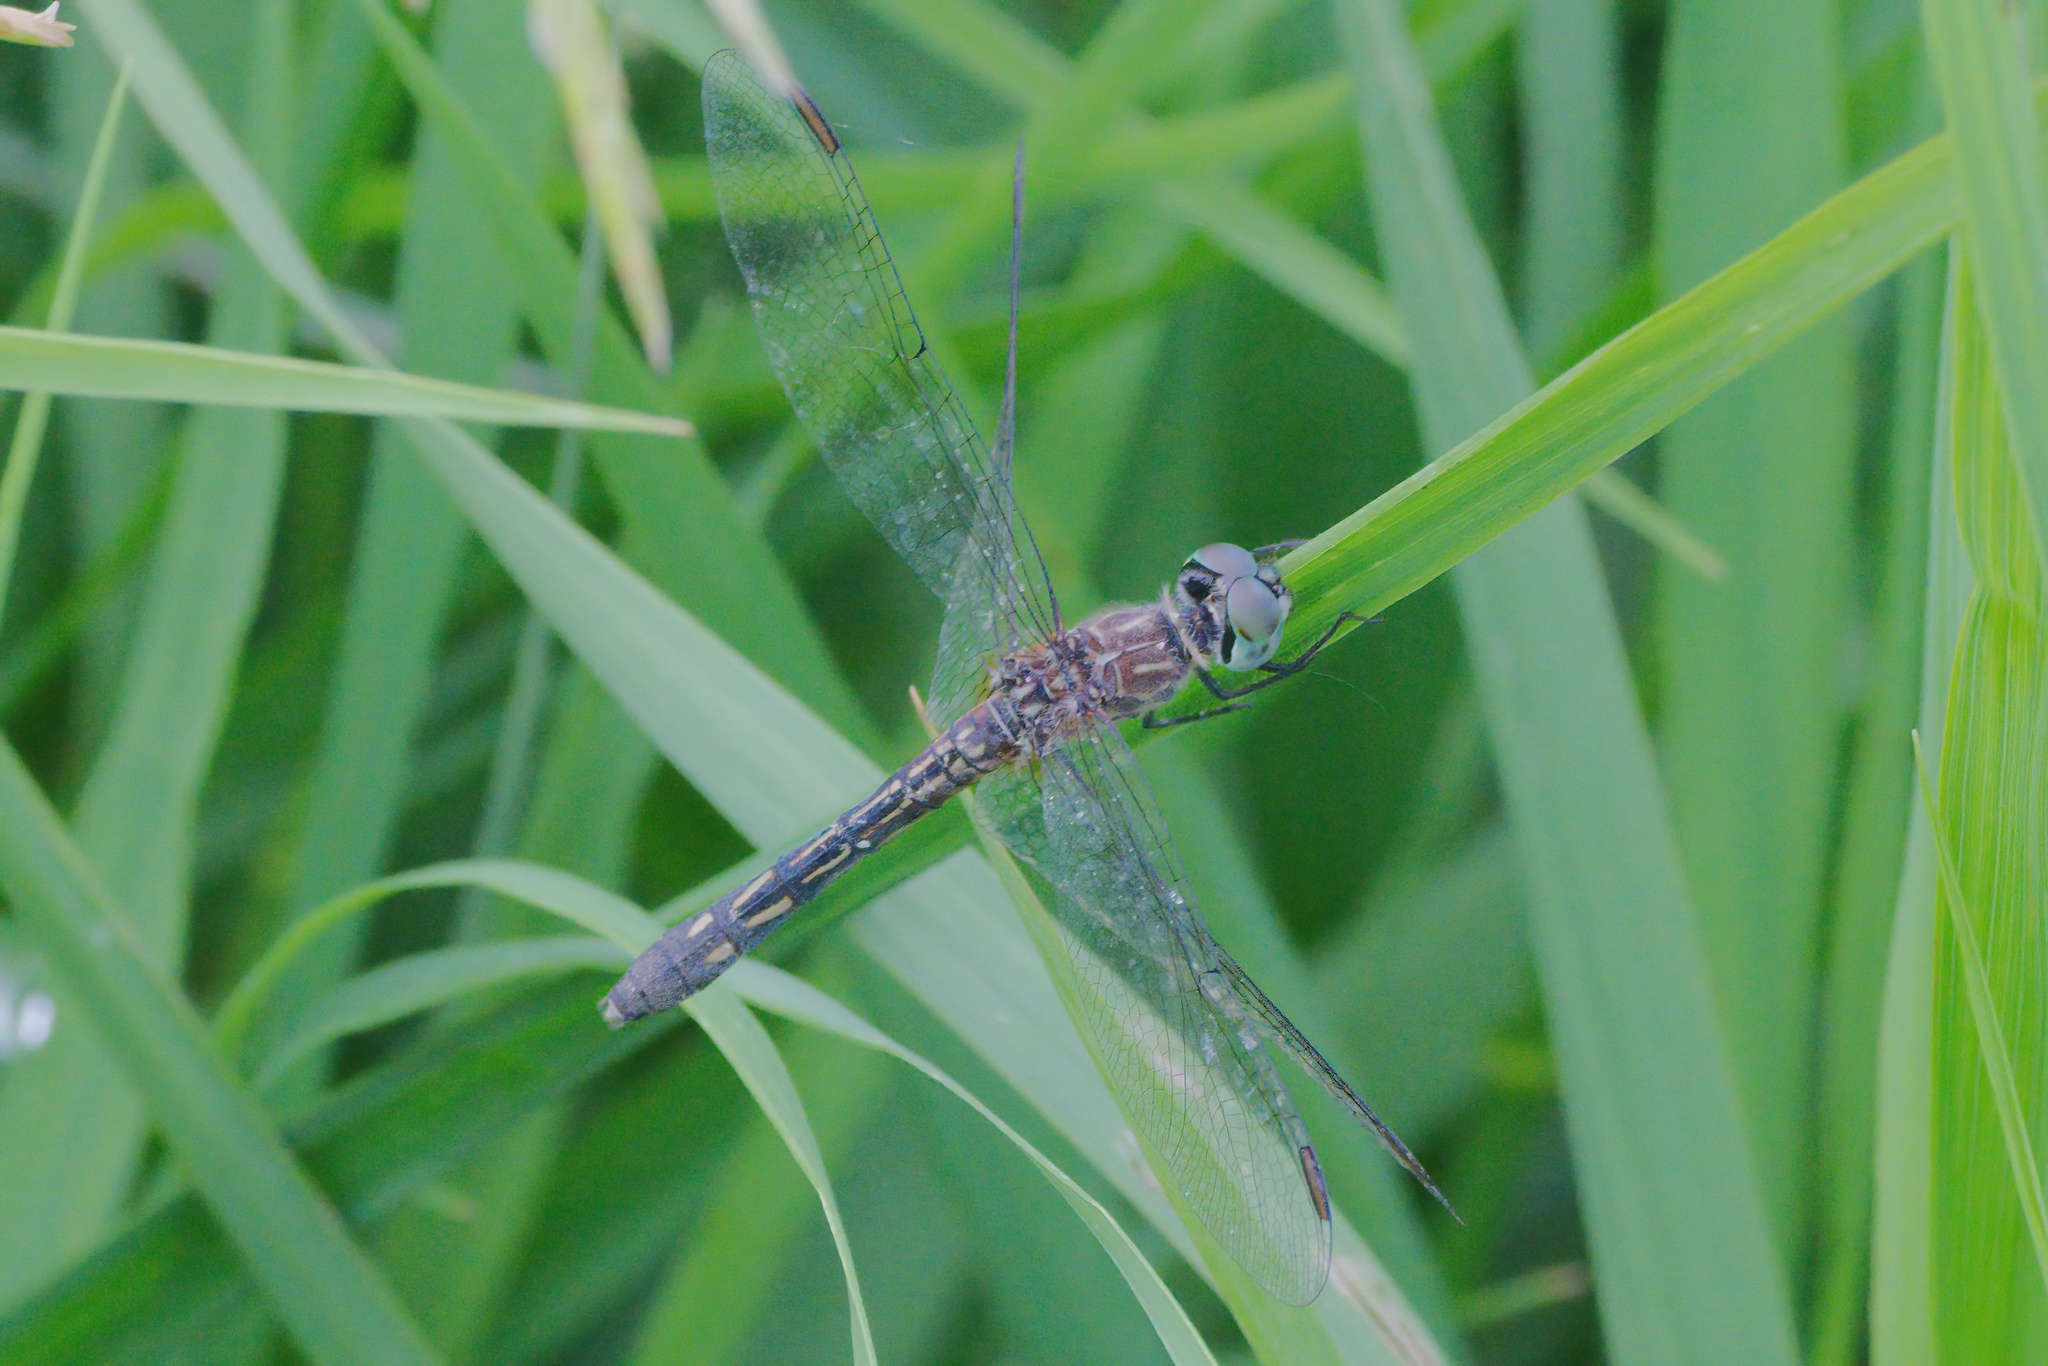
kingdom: Animalia
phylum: Arthropoda
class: Insecta
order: Odonata
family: Libellulidae
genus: Pachydiplax
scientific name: Pachydiplax longipennis
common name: Blue dasher
